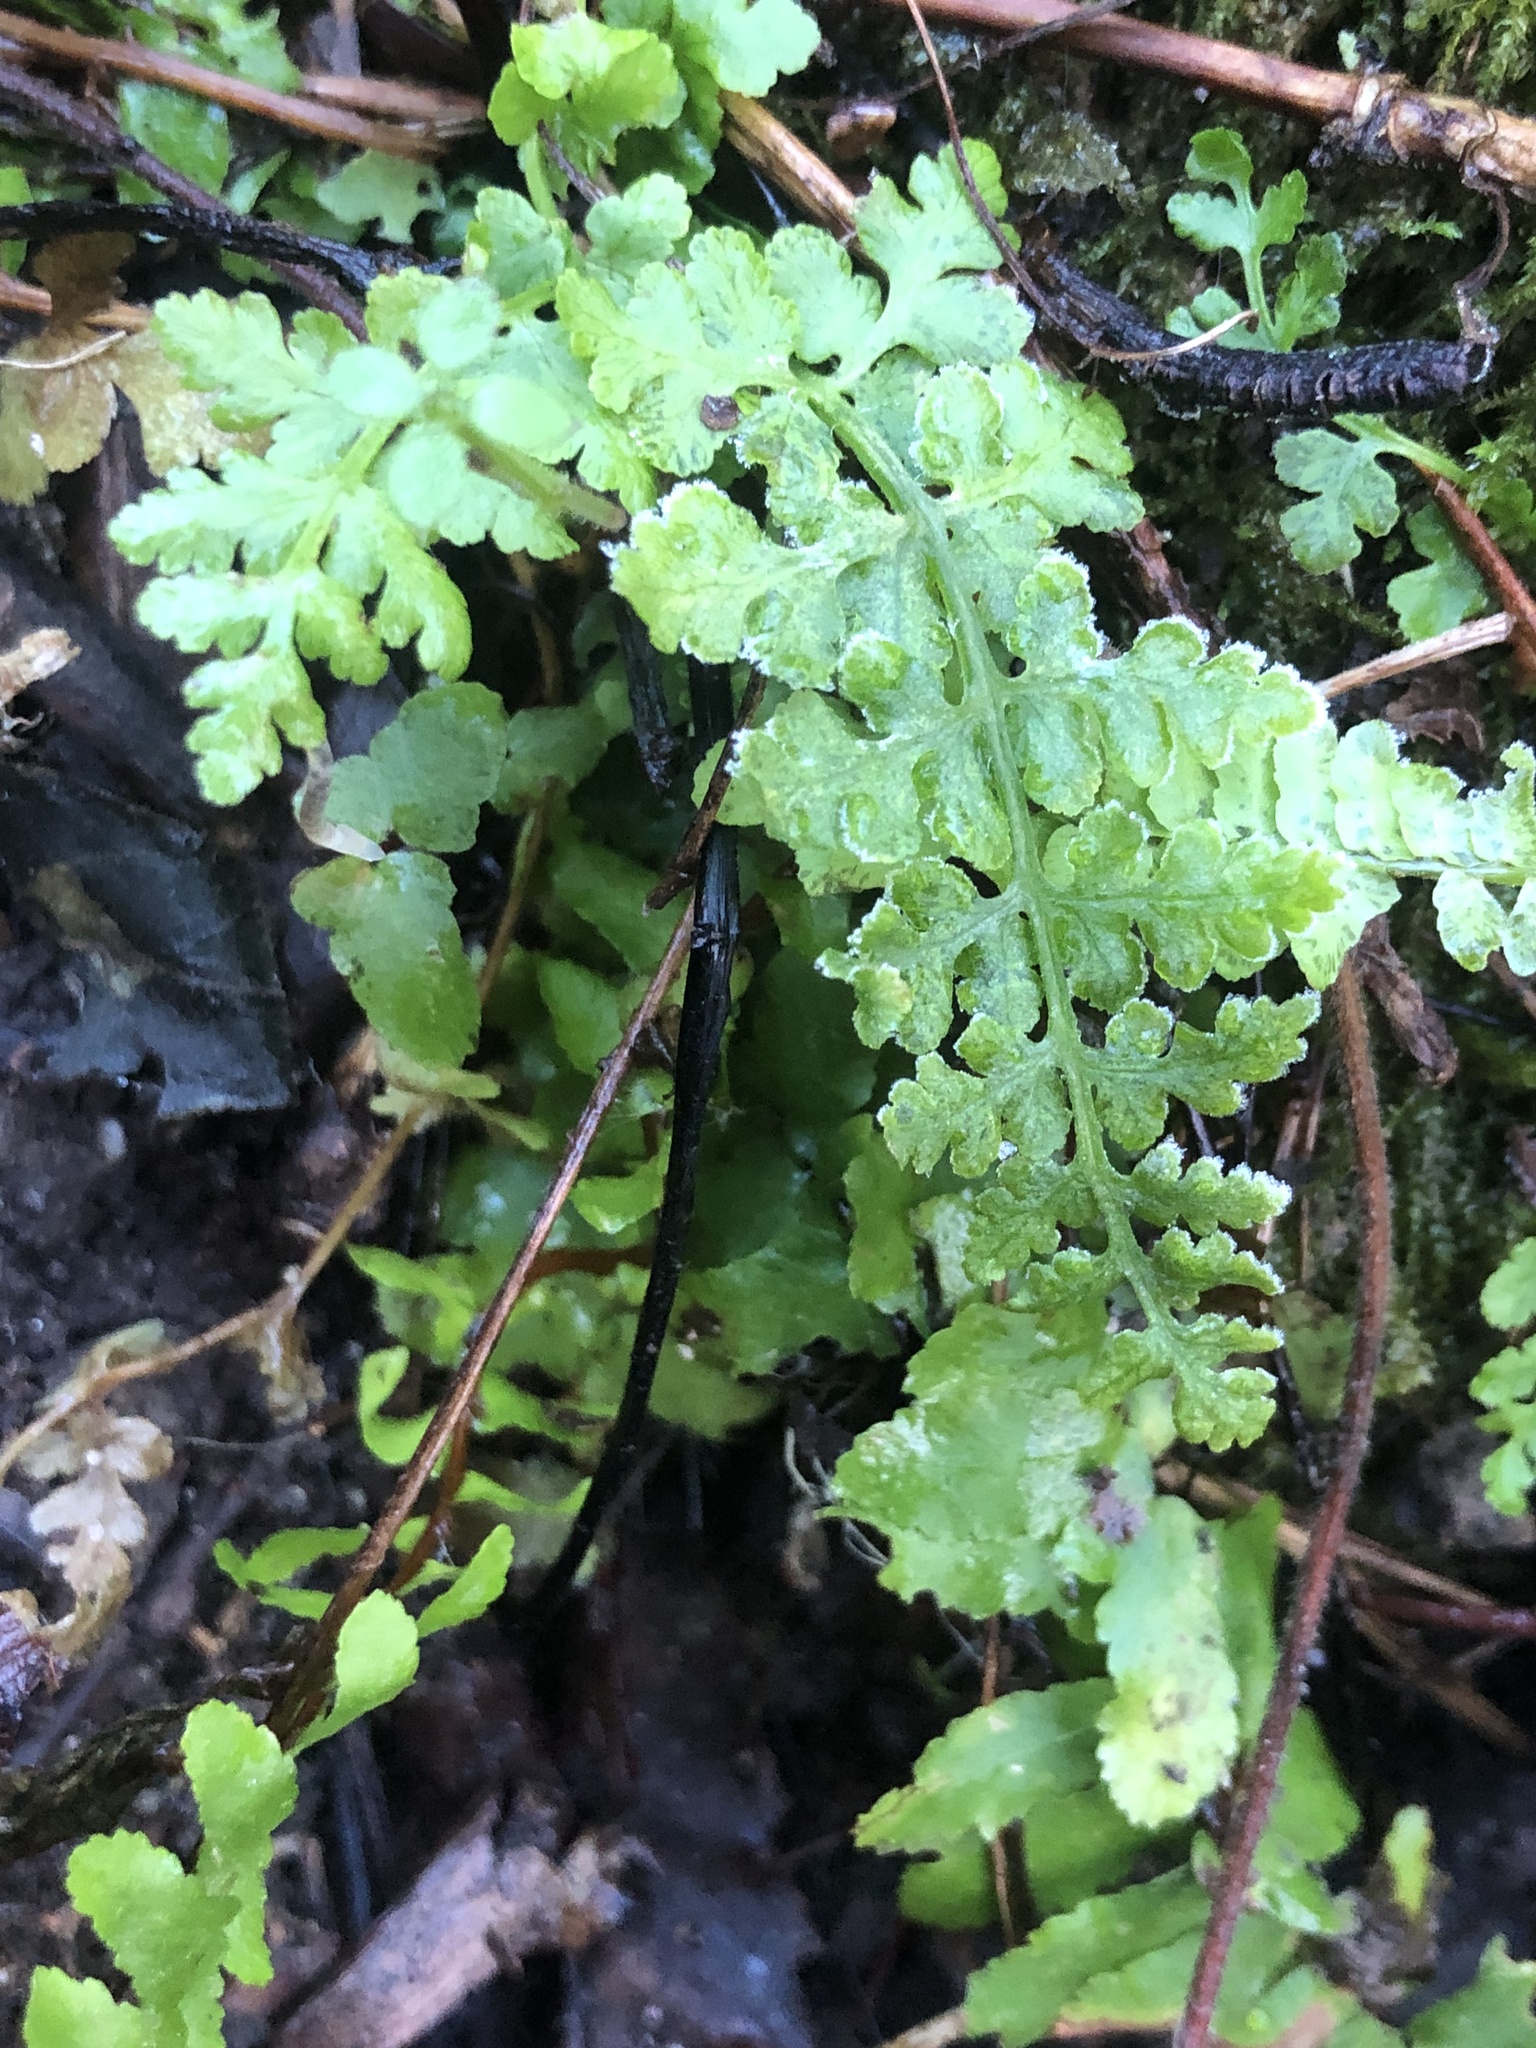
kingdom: Plantae
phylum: Tracheophyta
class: Polypodiopsida
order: Polypodiales
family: Woodsiaceae
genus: Physematium
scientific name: Physematium obtusum
